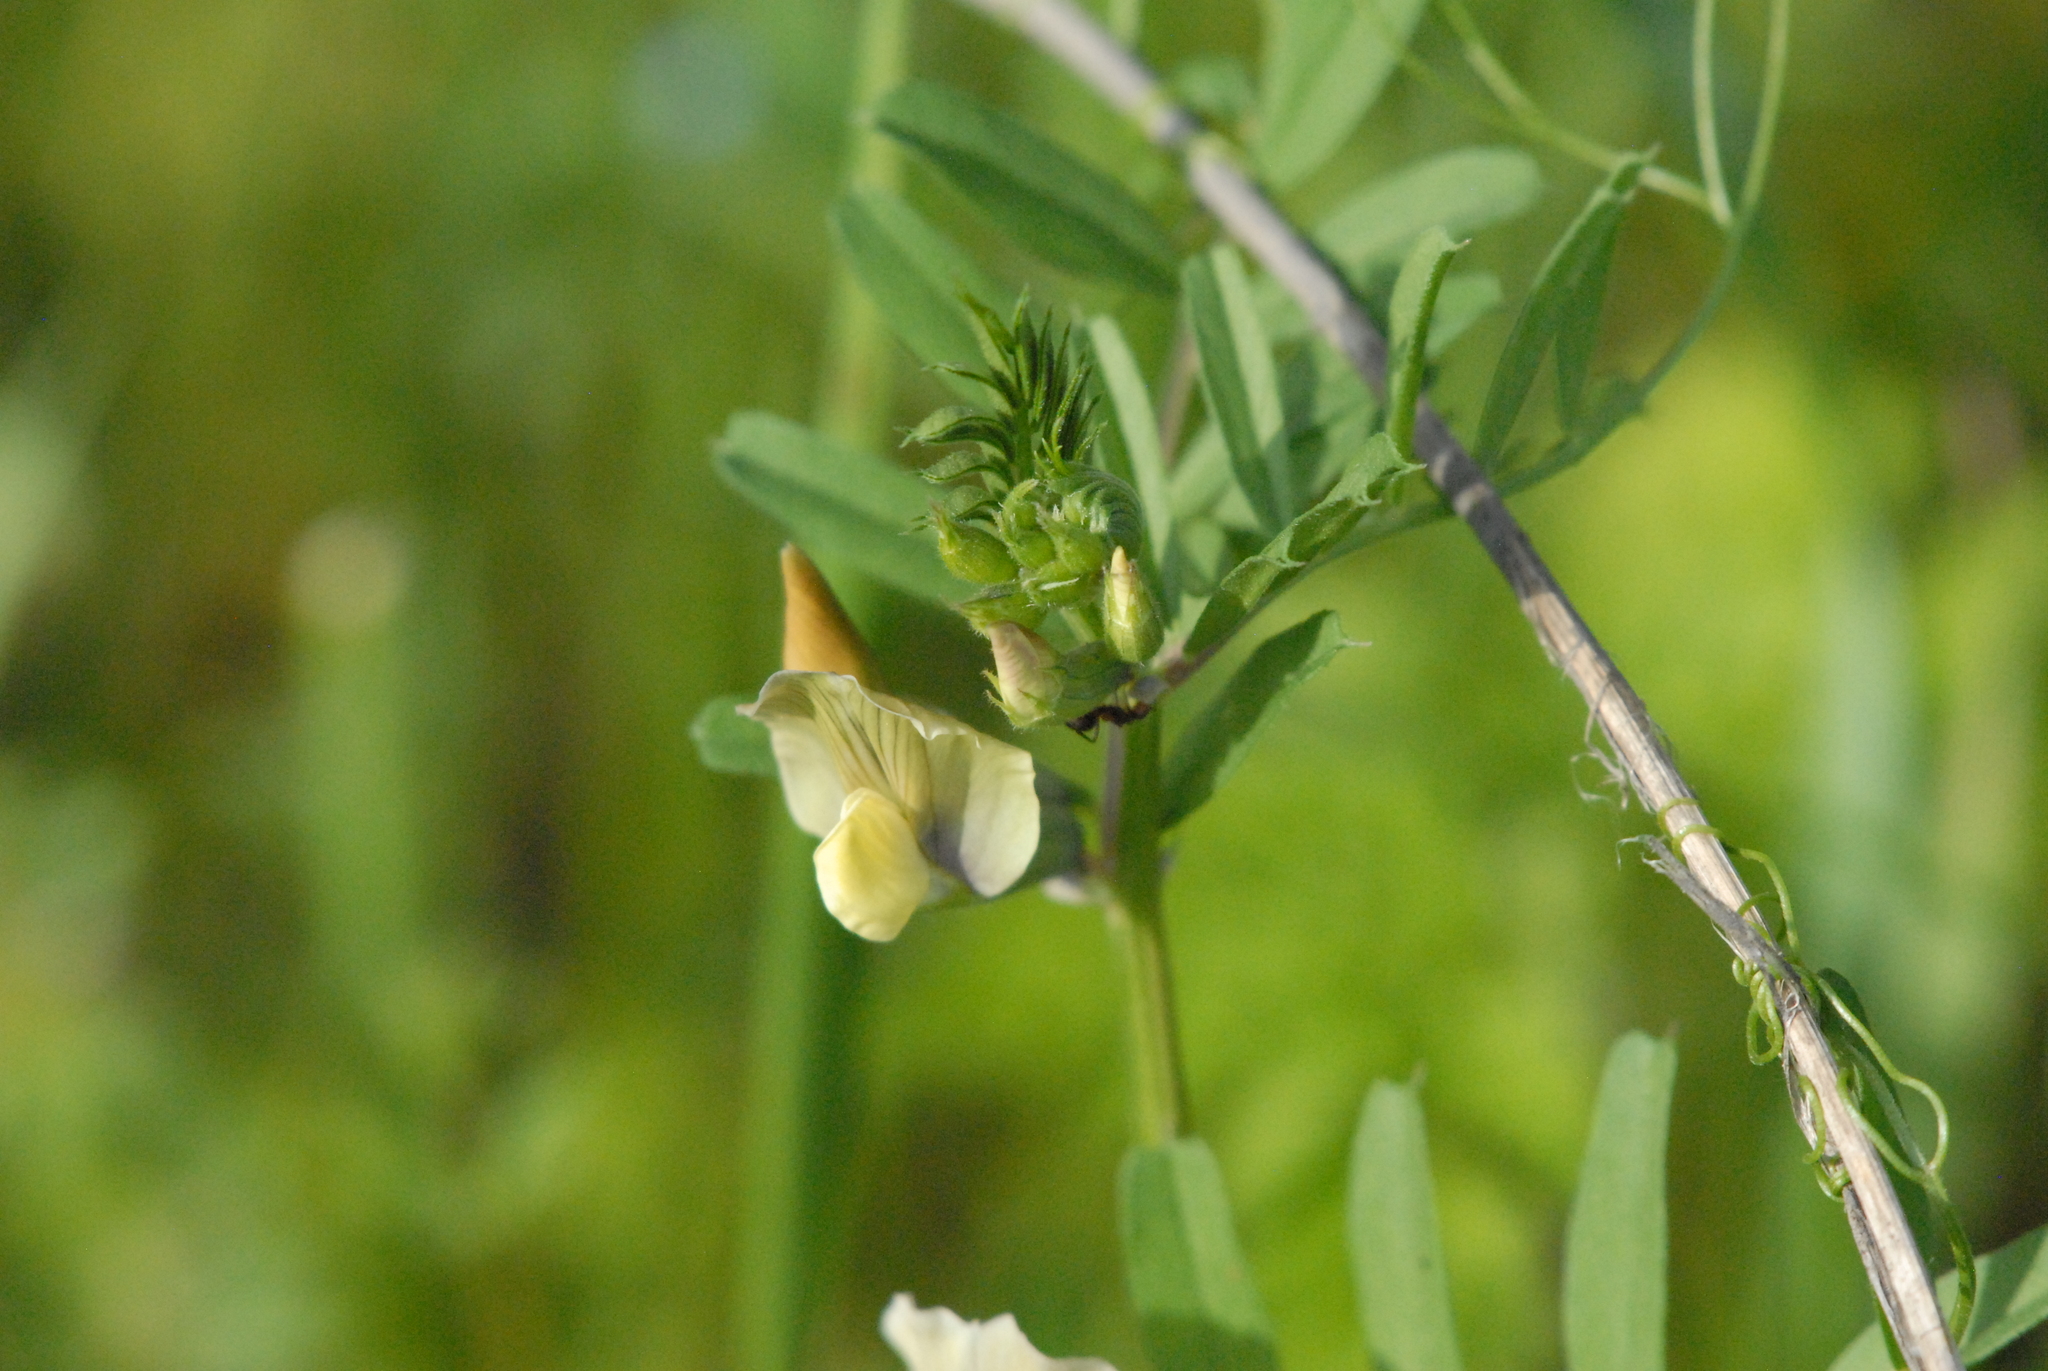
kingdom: Plantae
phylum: Tracheophyta
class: Magnoliopsida
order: Fabales
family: Fabaceae
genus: Vicia
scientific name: Vicia grandiflora
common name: Large yellow vetch
